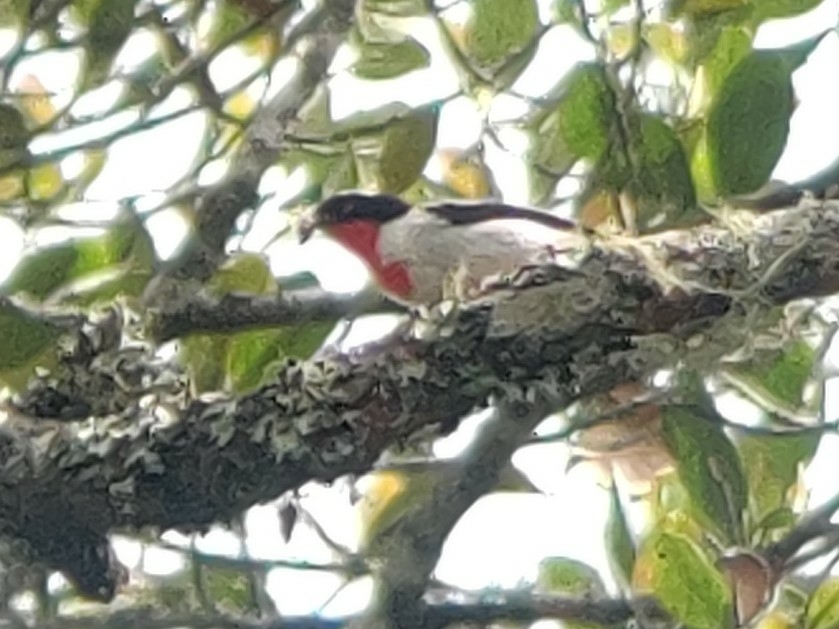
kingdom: Animalia
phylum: Chordata
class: Aves
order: Passeriformes
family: Thraupidae
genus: Nemosia
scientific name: Nemosia rourei
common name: Cherry-throated tanager
